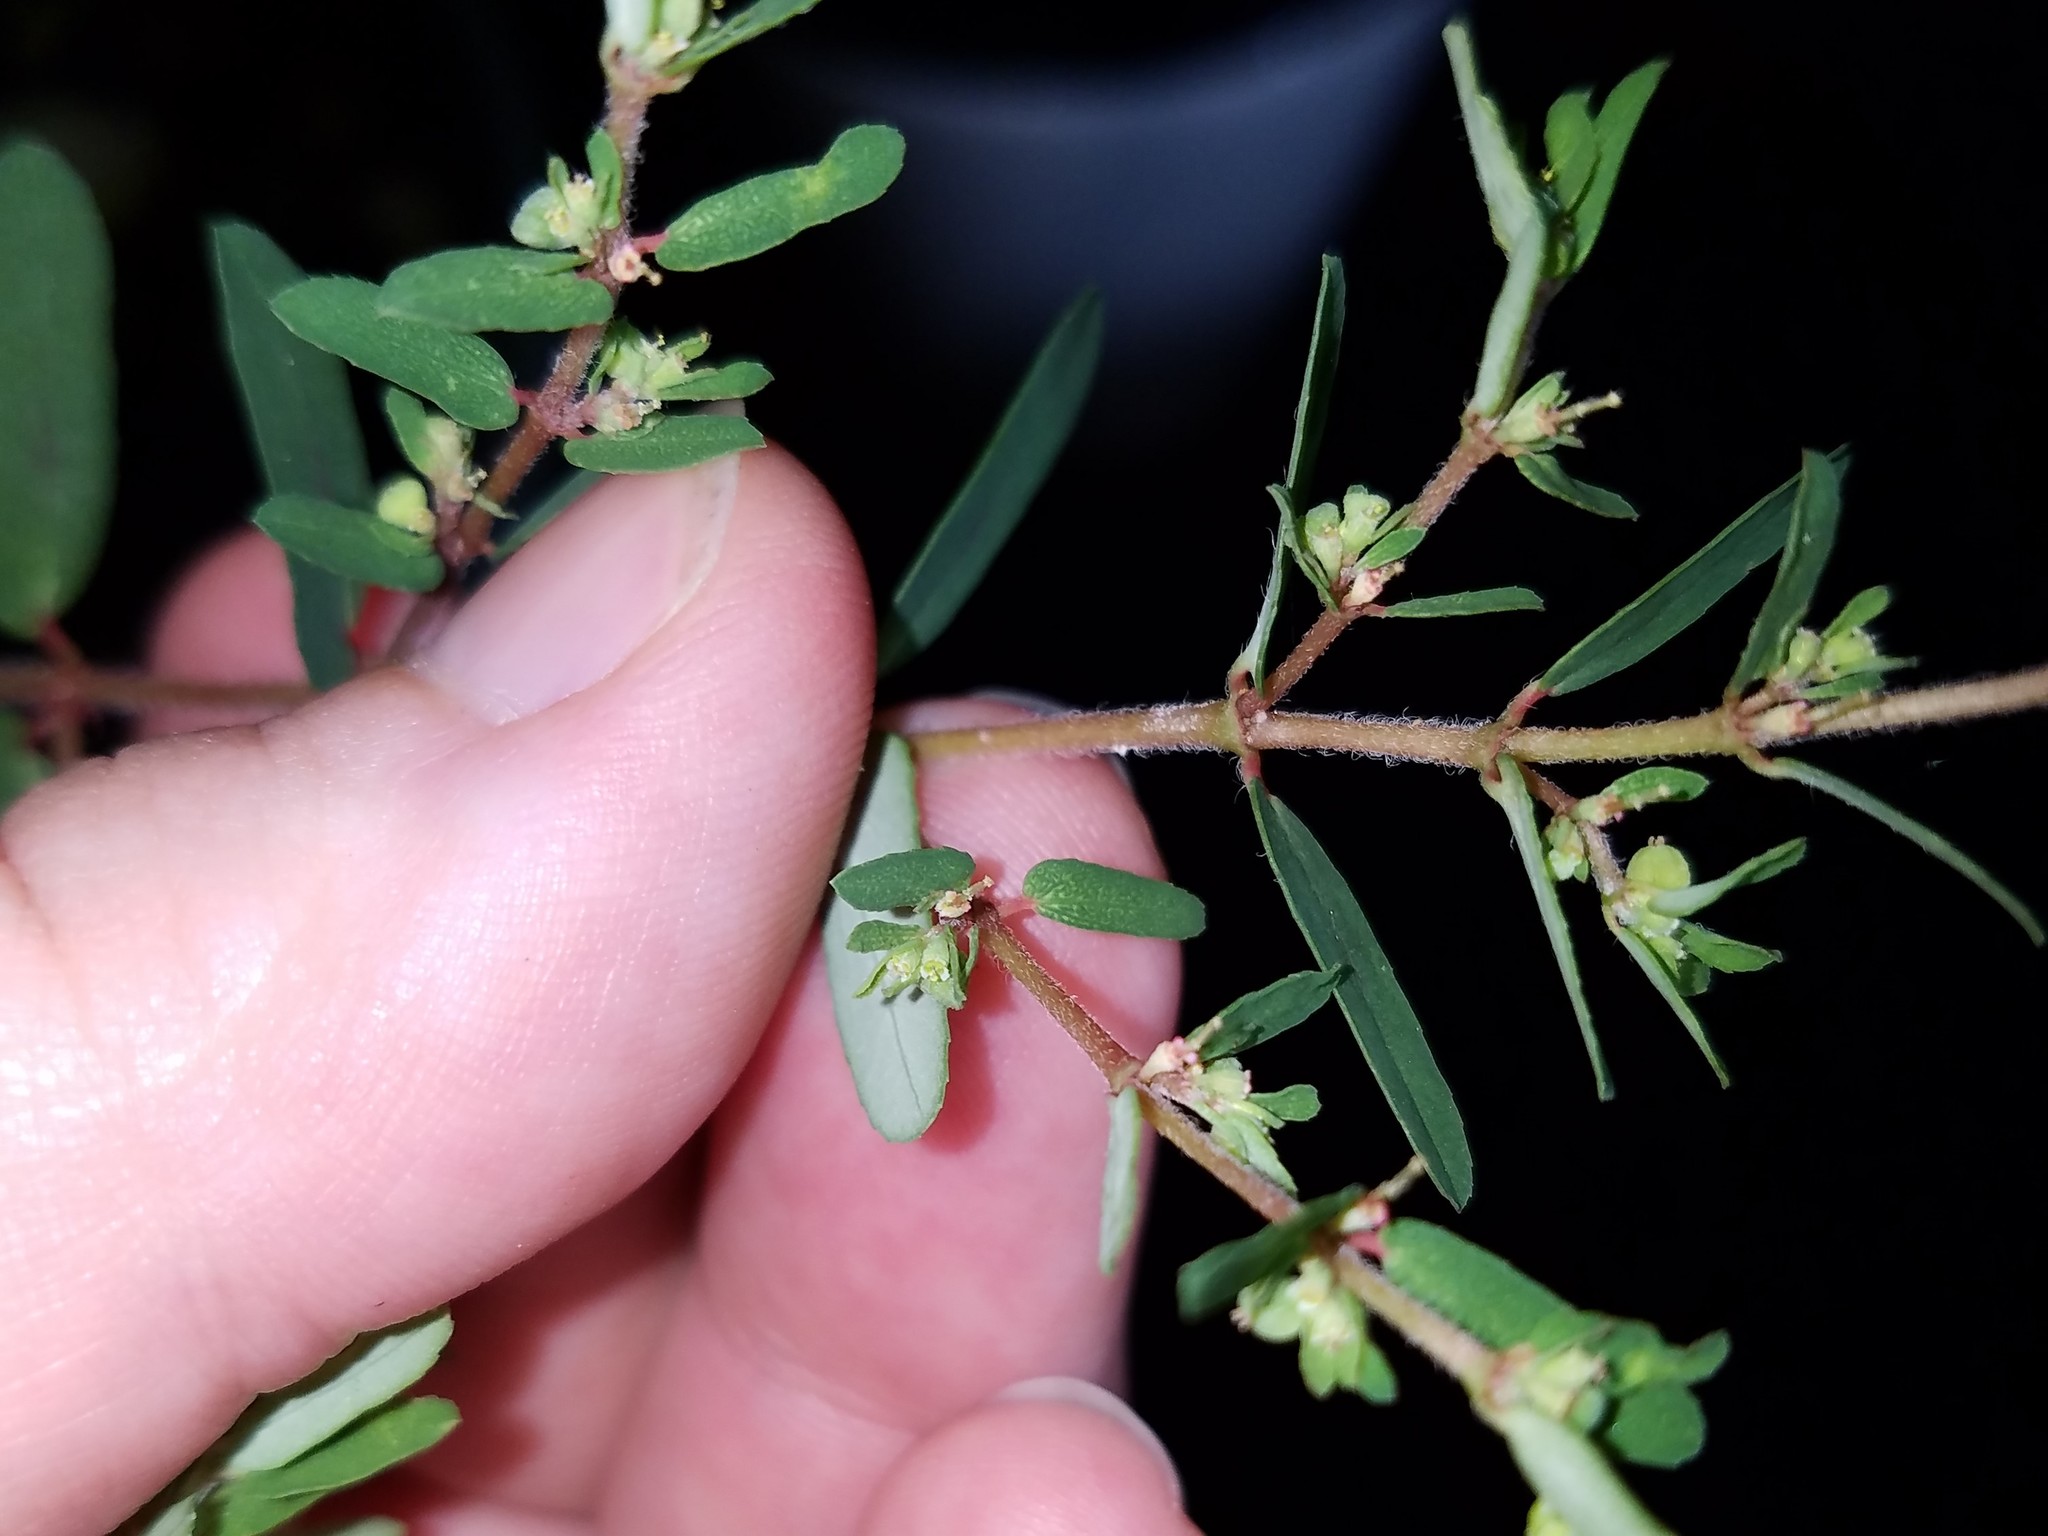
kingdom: Plantae
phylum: Tracheophyta
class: Magnoliopsida
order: Malpighiales
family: Euphorbiaceae
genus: Euphorbia
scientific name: Euphorbia maculata
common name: Spotted spurge
